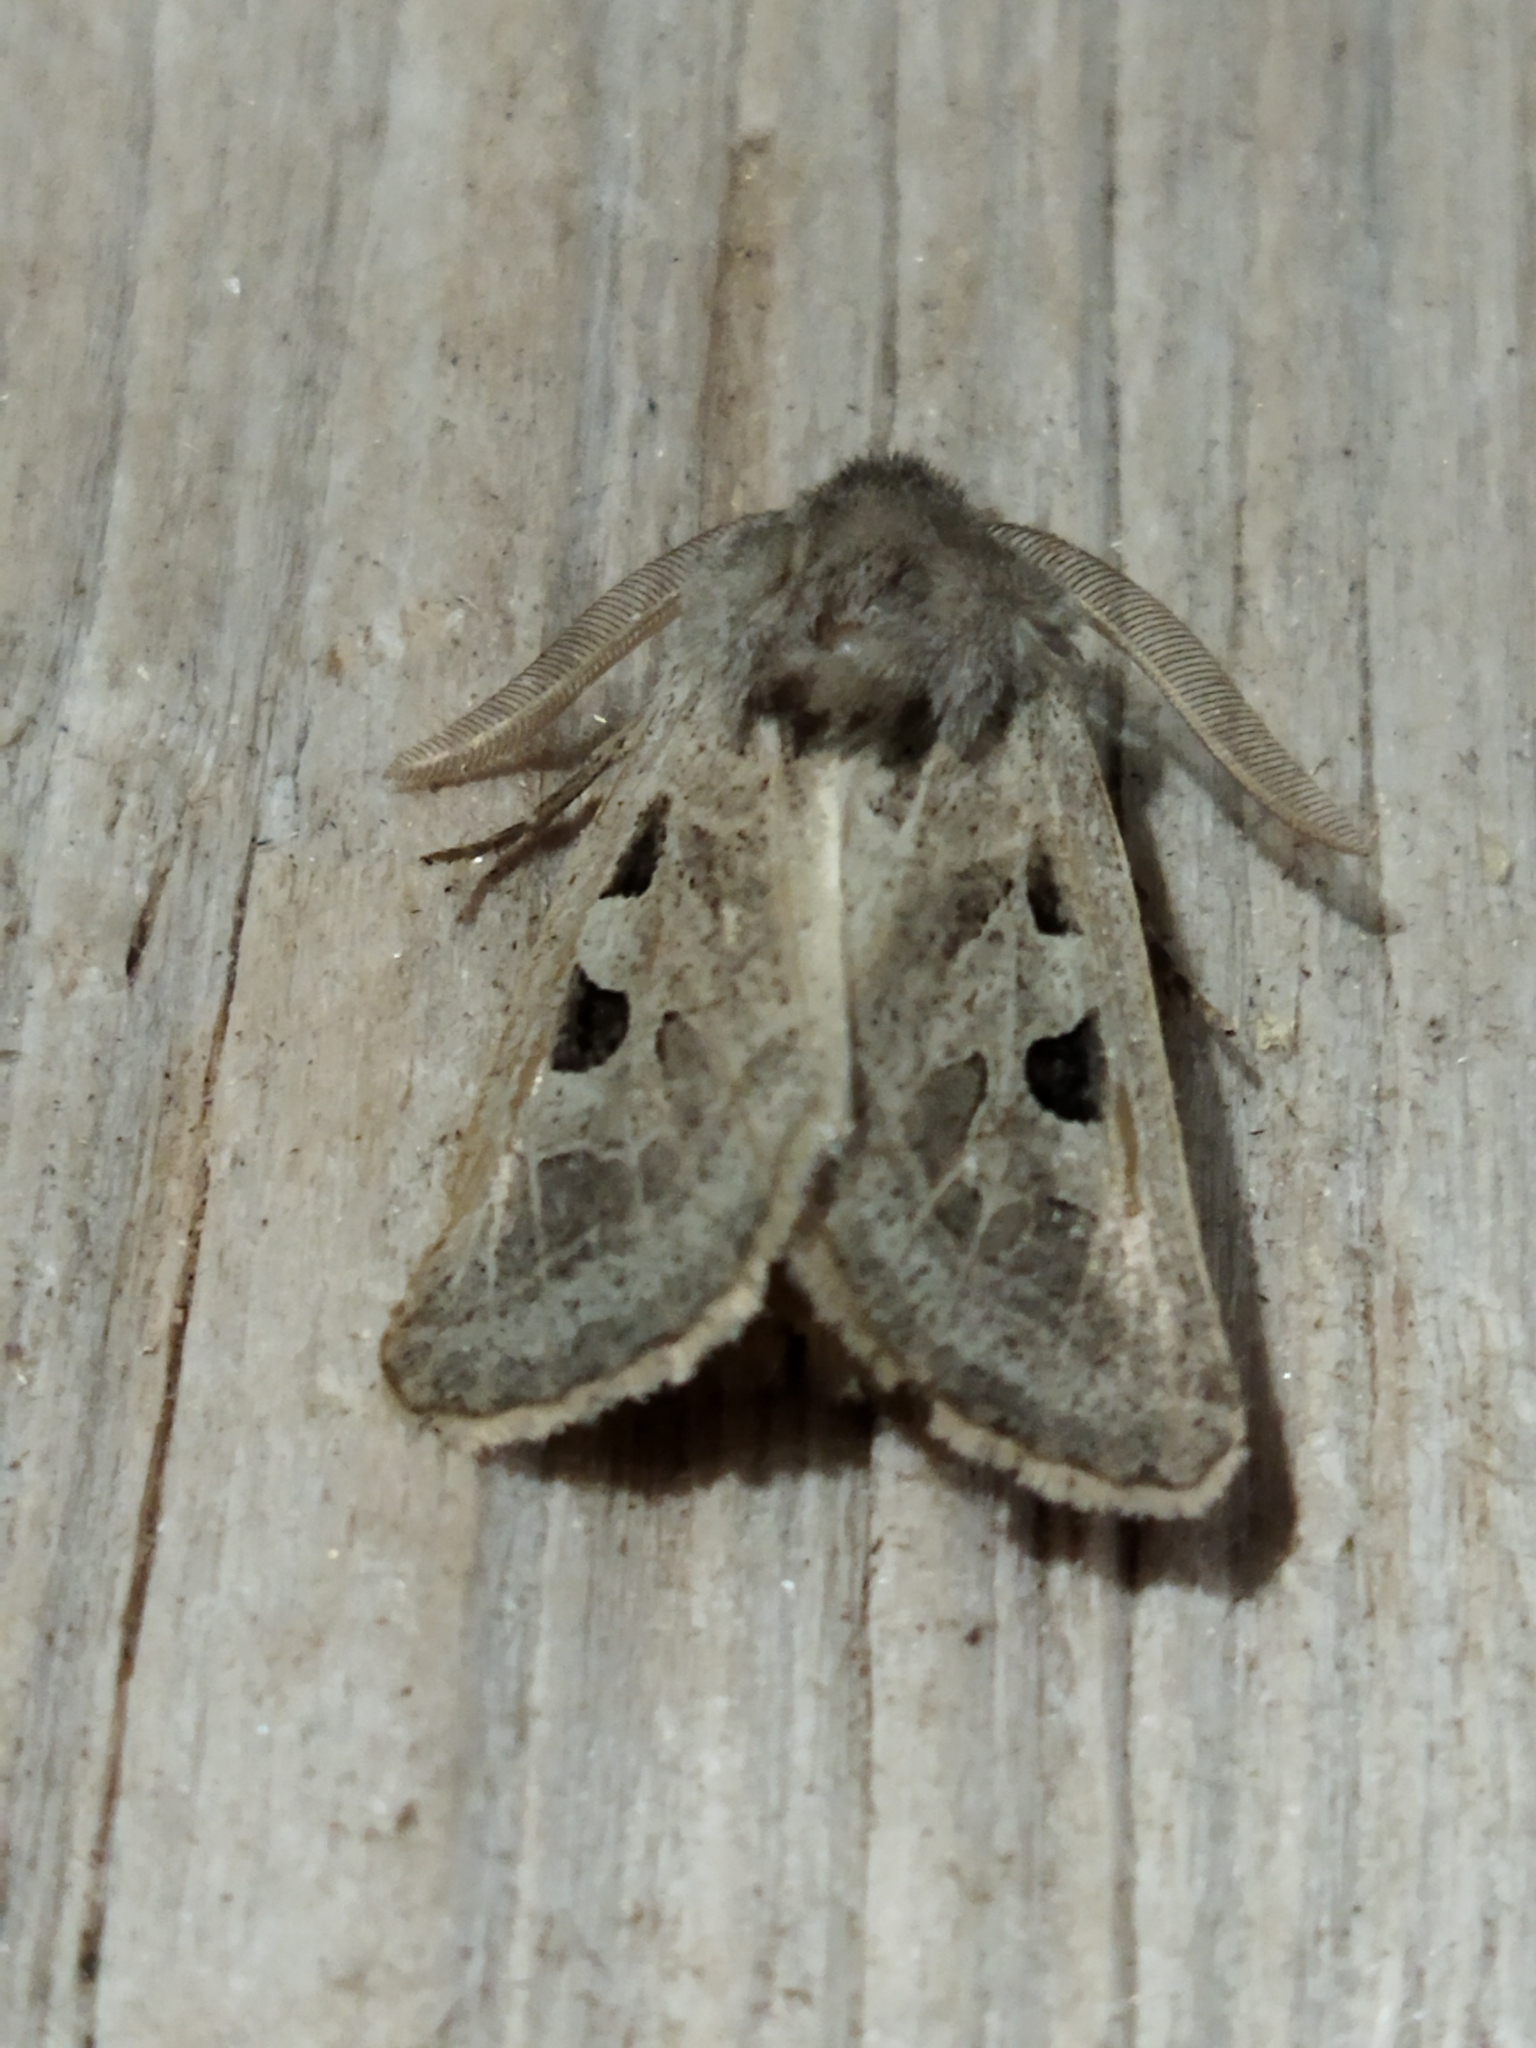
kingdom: Animalia
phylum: Arthropoda
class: Insecta
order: Lepidoptera
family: Noctuidae
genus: Episema
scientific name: Episema tersa
